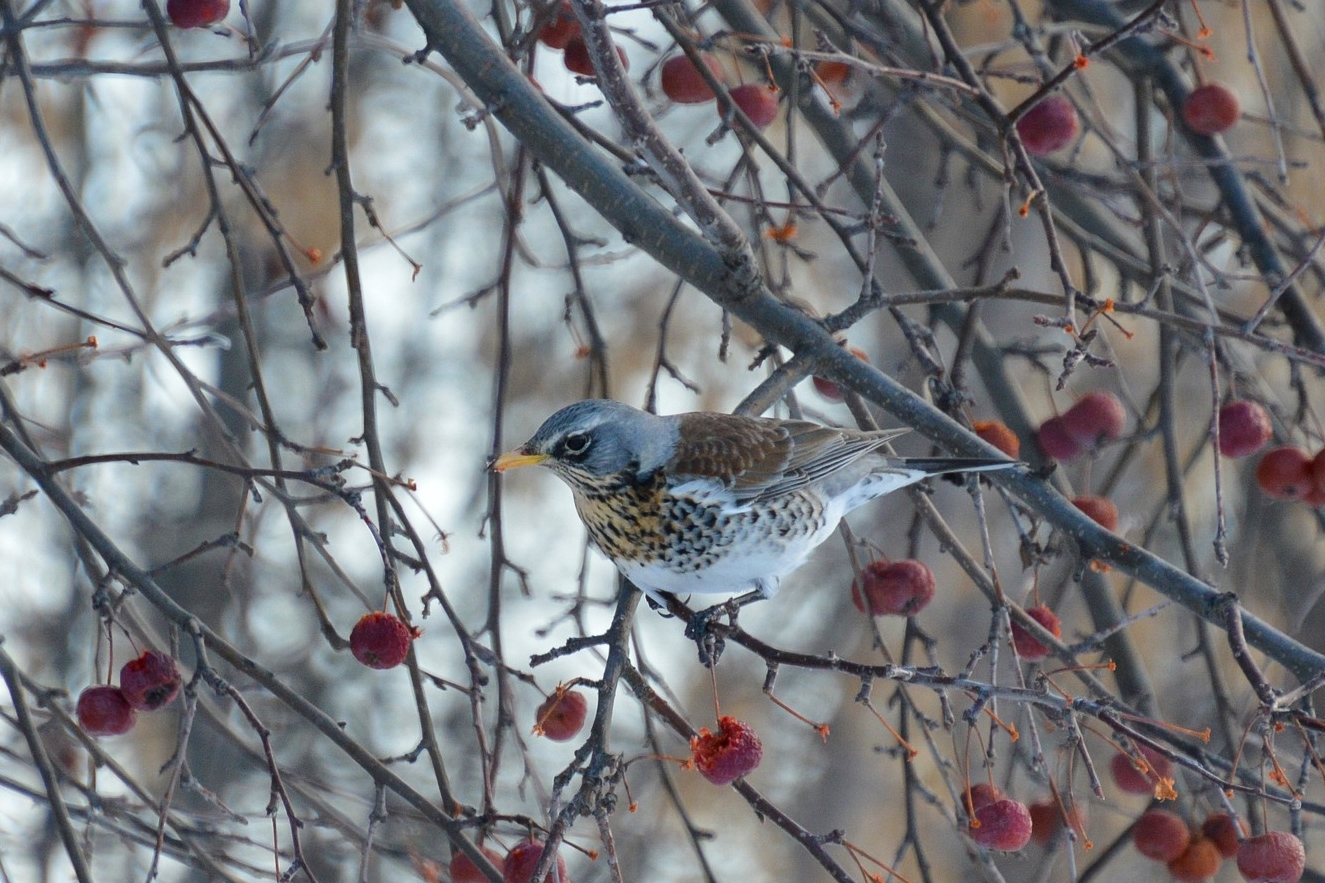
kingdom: Animalia
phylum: Chordata
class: Aves
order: Passeriformes
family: Turdidae
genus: Turdus
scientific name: Turdus pilaris
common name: Fieldfare
